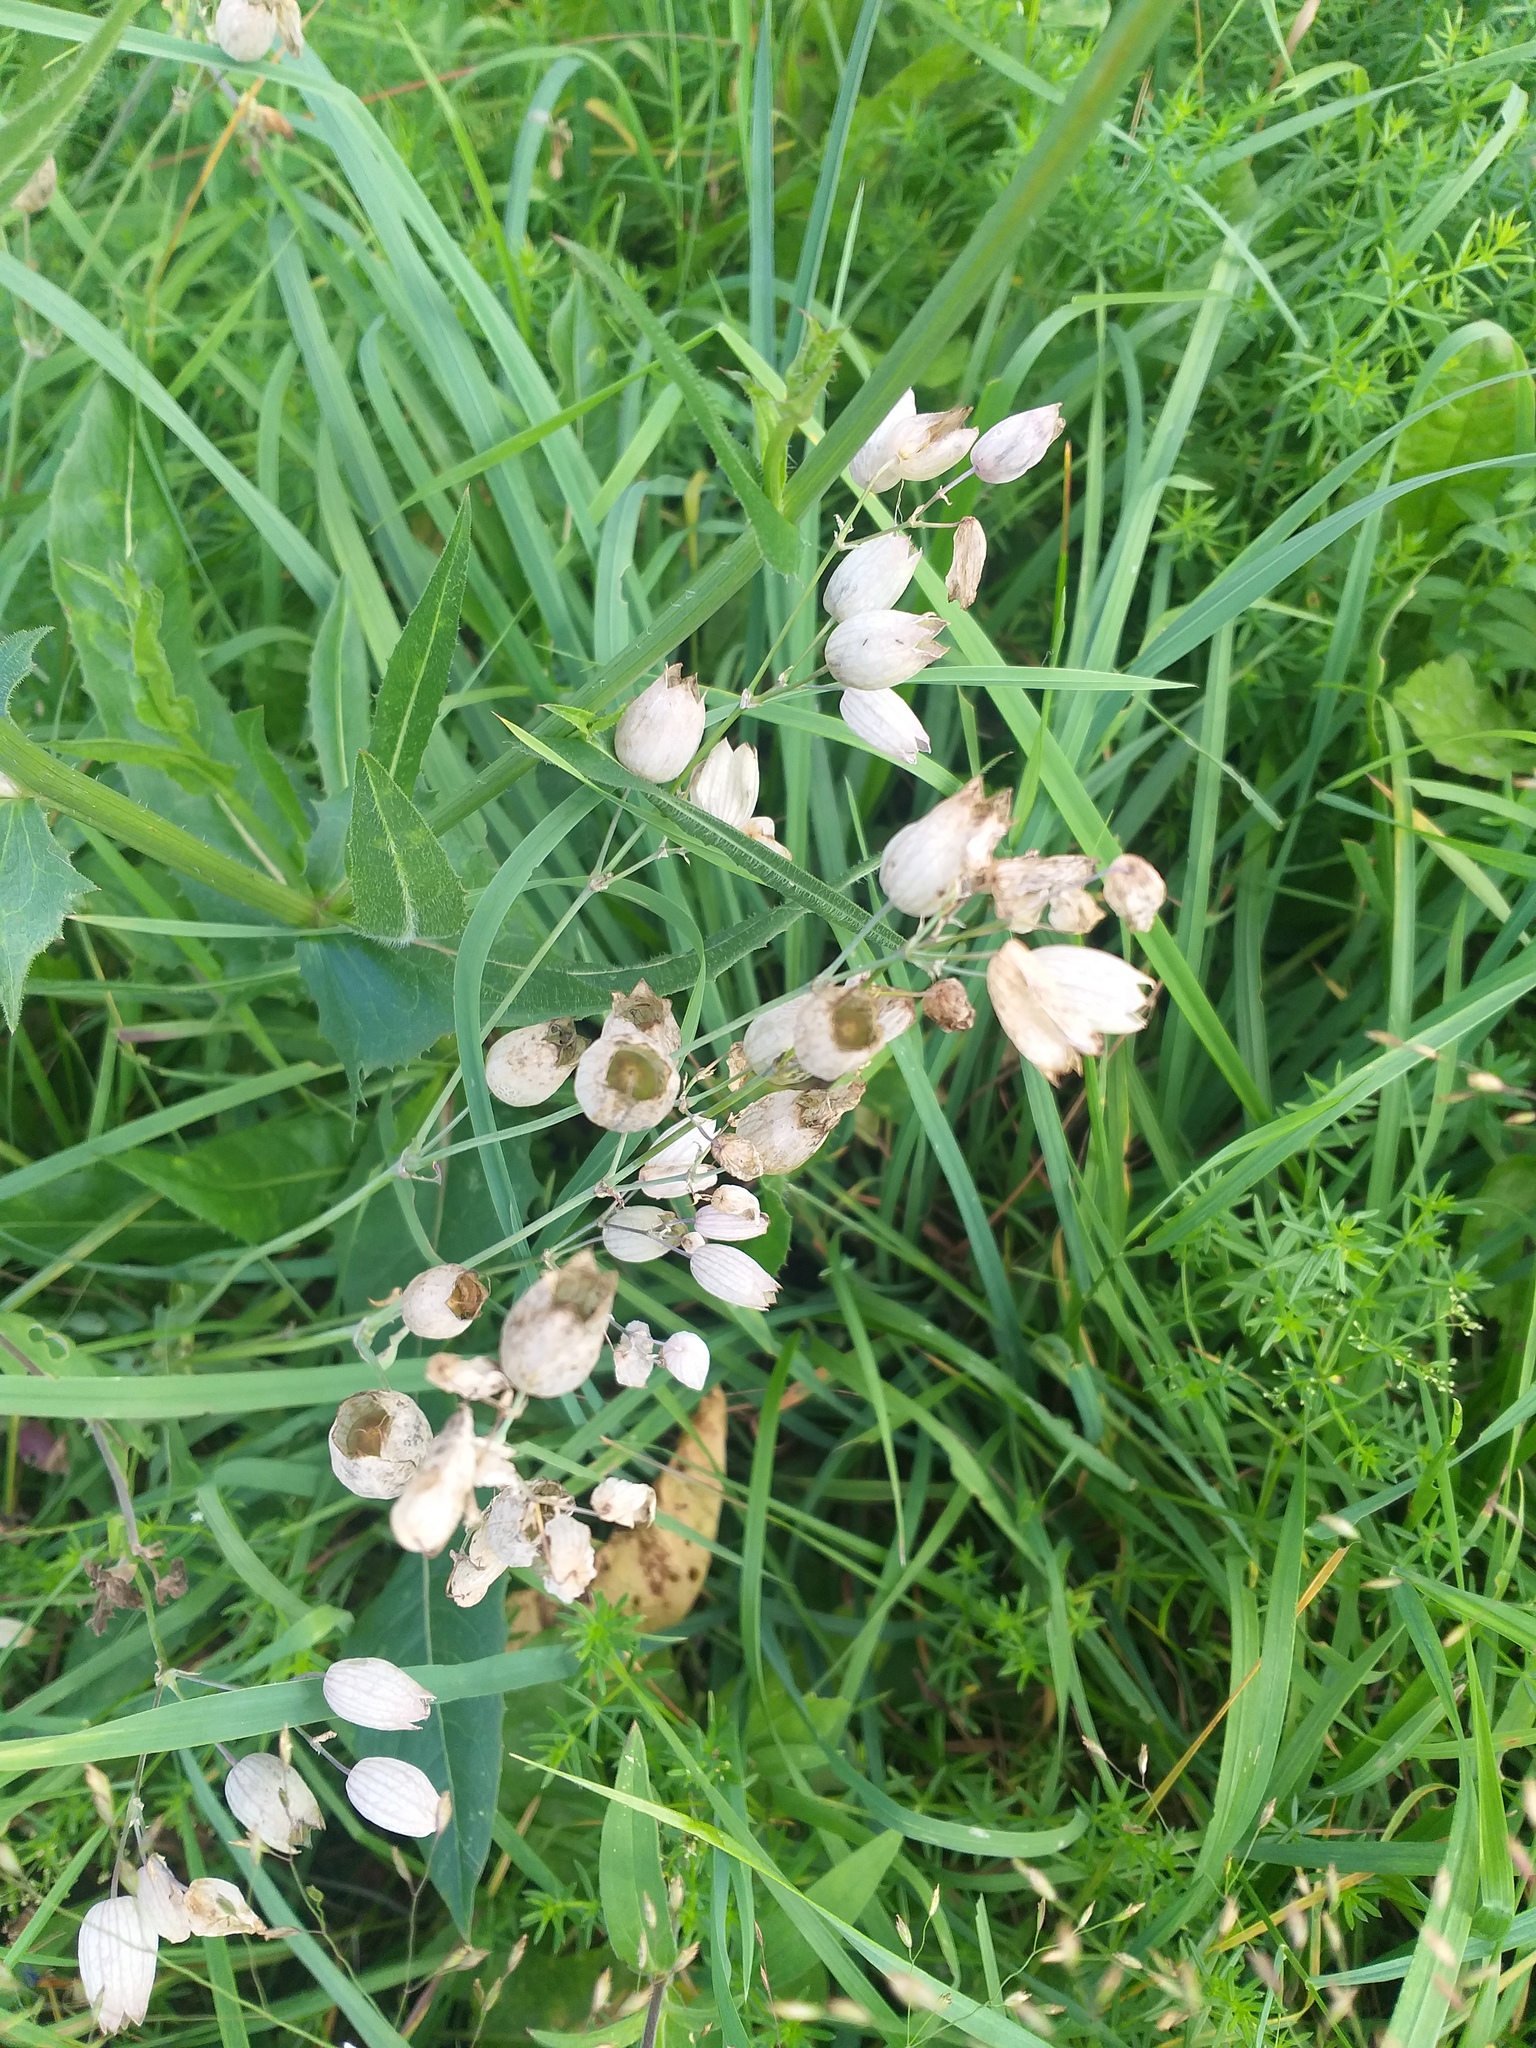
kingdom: Plantae
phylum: Tracheophyta
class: Magnoliopsida
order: Caryophyllales
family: Caryophyllaceae
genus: Silene
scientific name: Silene vulgaris
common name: Bladder campion
